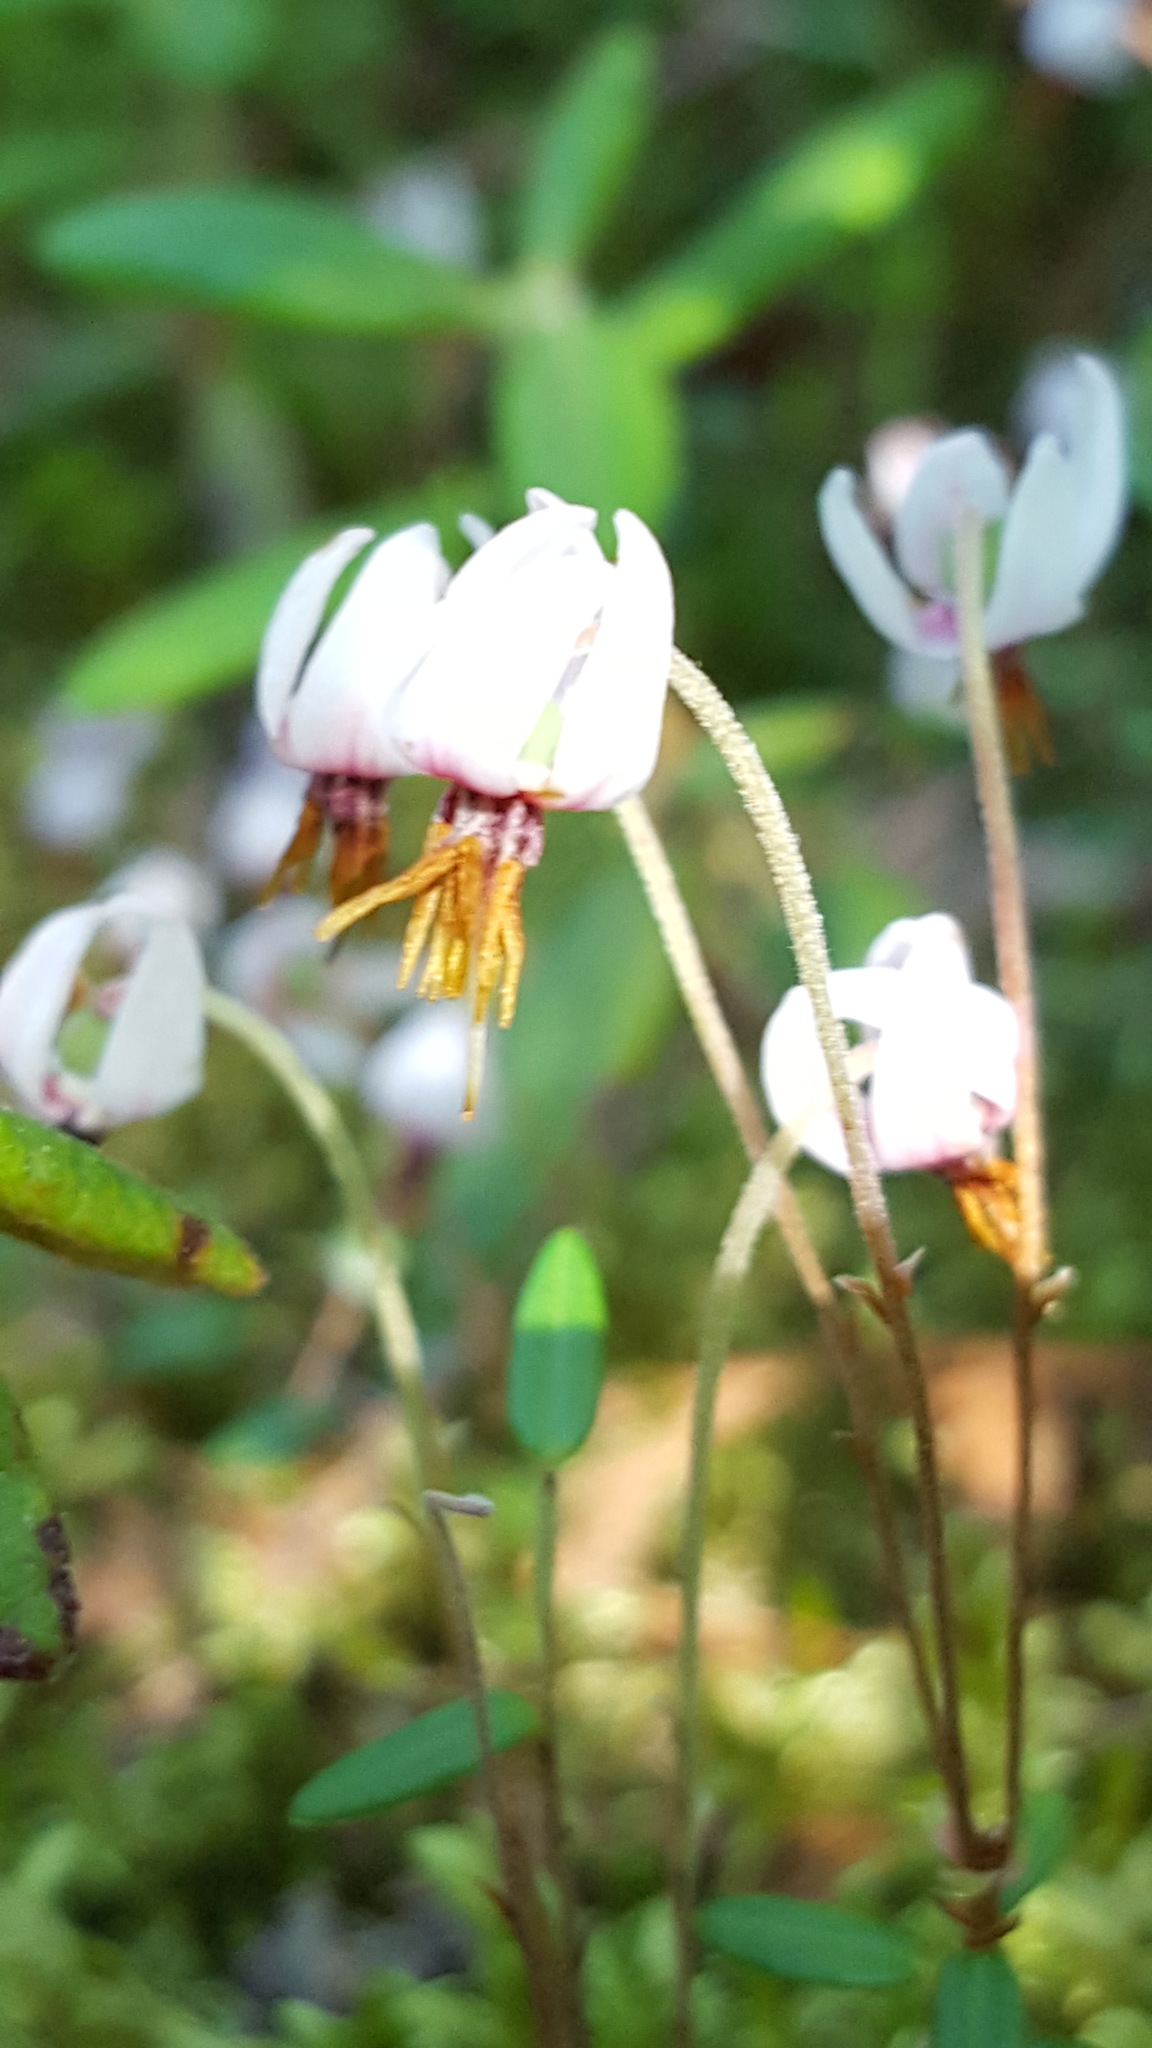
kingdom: Plantae
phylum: Tracheophyta
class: Magnoliopsida
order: Ericales
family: Ericaceae
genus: Vaccinium
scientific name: Vaccinium oxycoccos
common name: Cranberry
